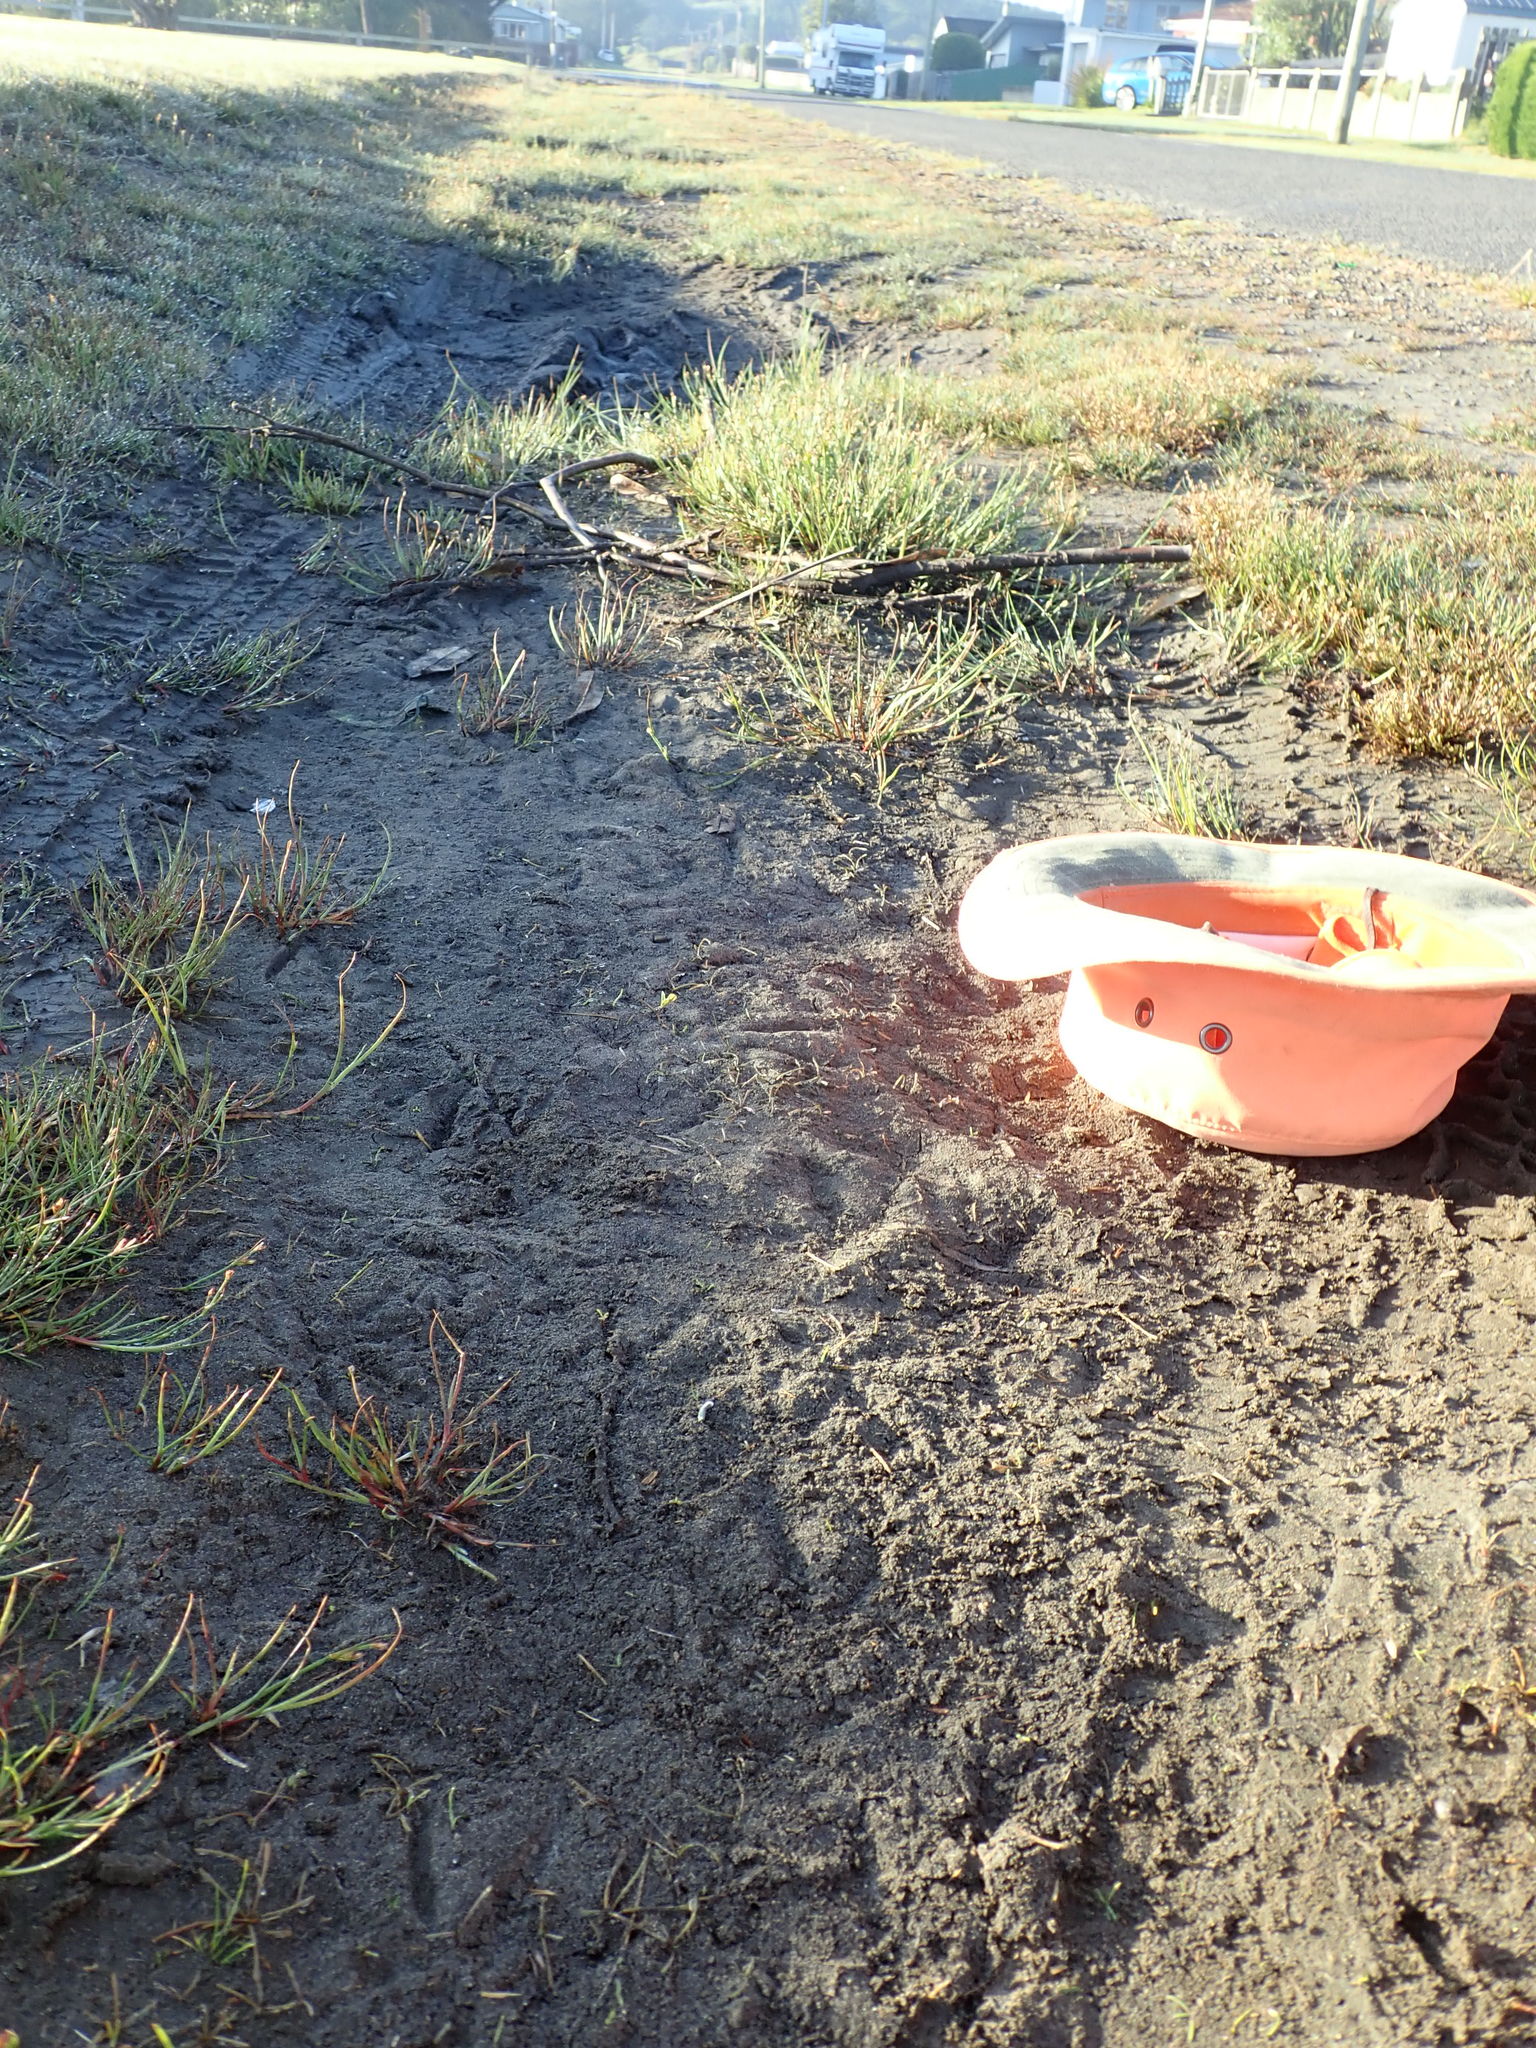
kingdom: Plantae
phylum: Tracheophyta
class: Magnoliopsida
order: Lamiales
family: Scrophulariaceae
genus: Limosella
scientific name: Limosella australis
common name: Welsh mudwort
